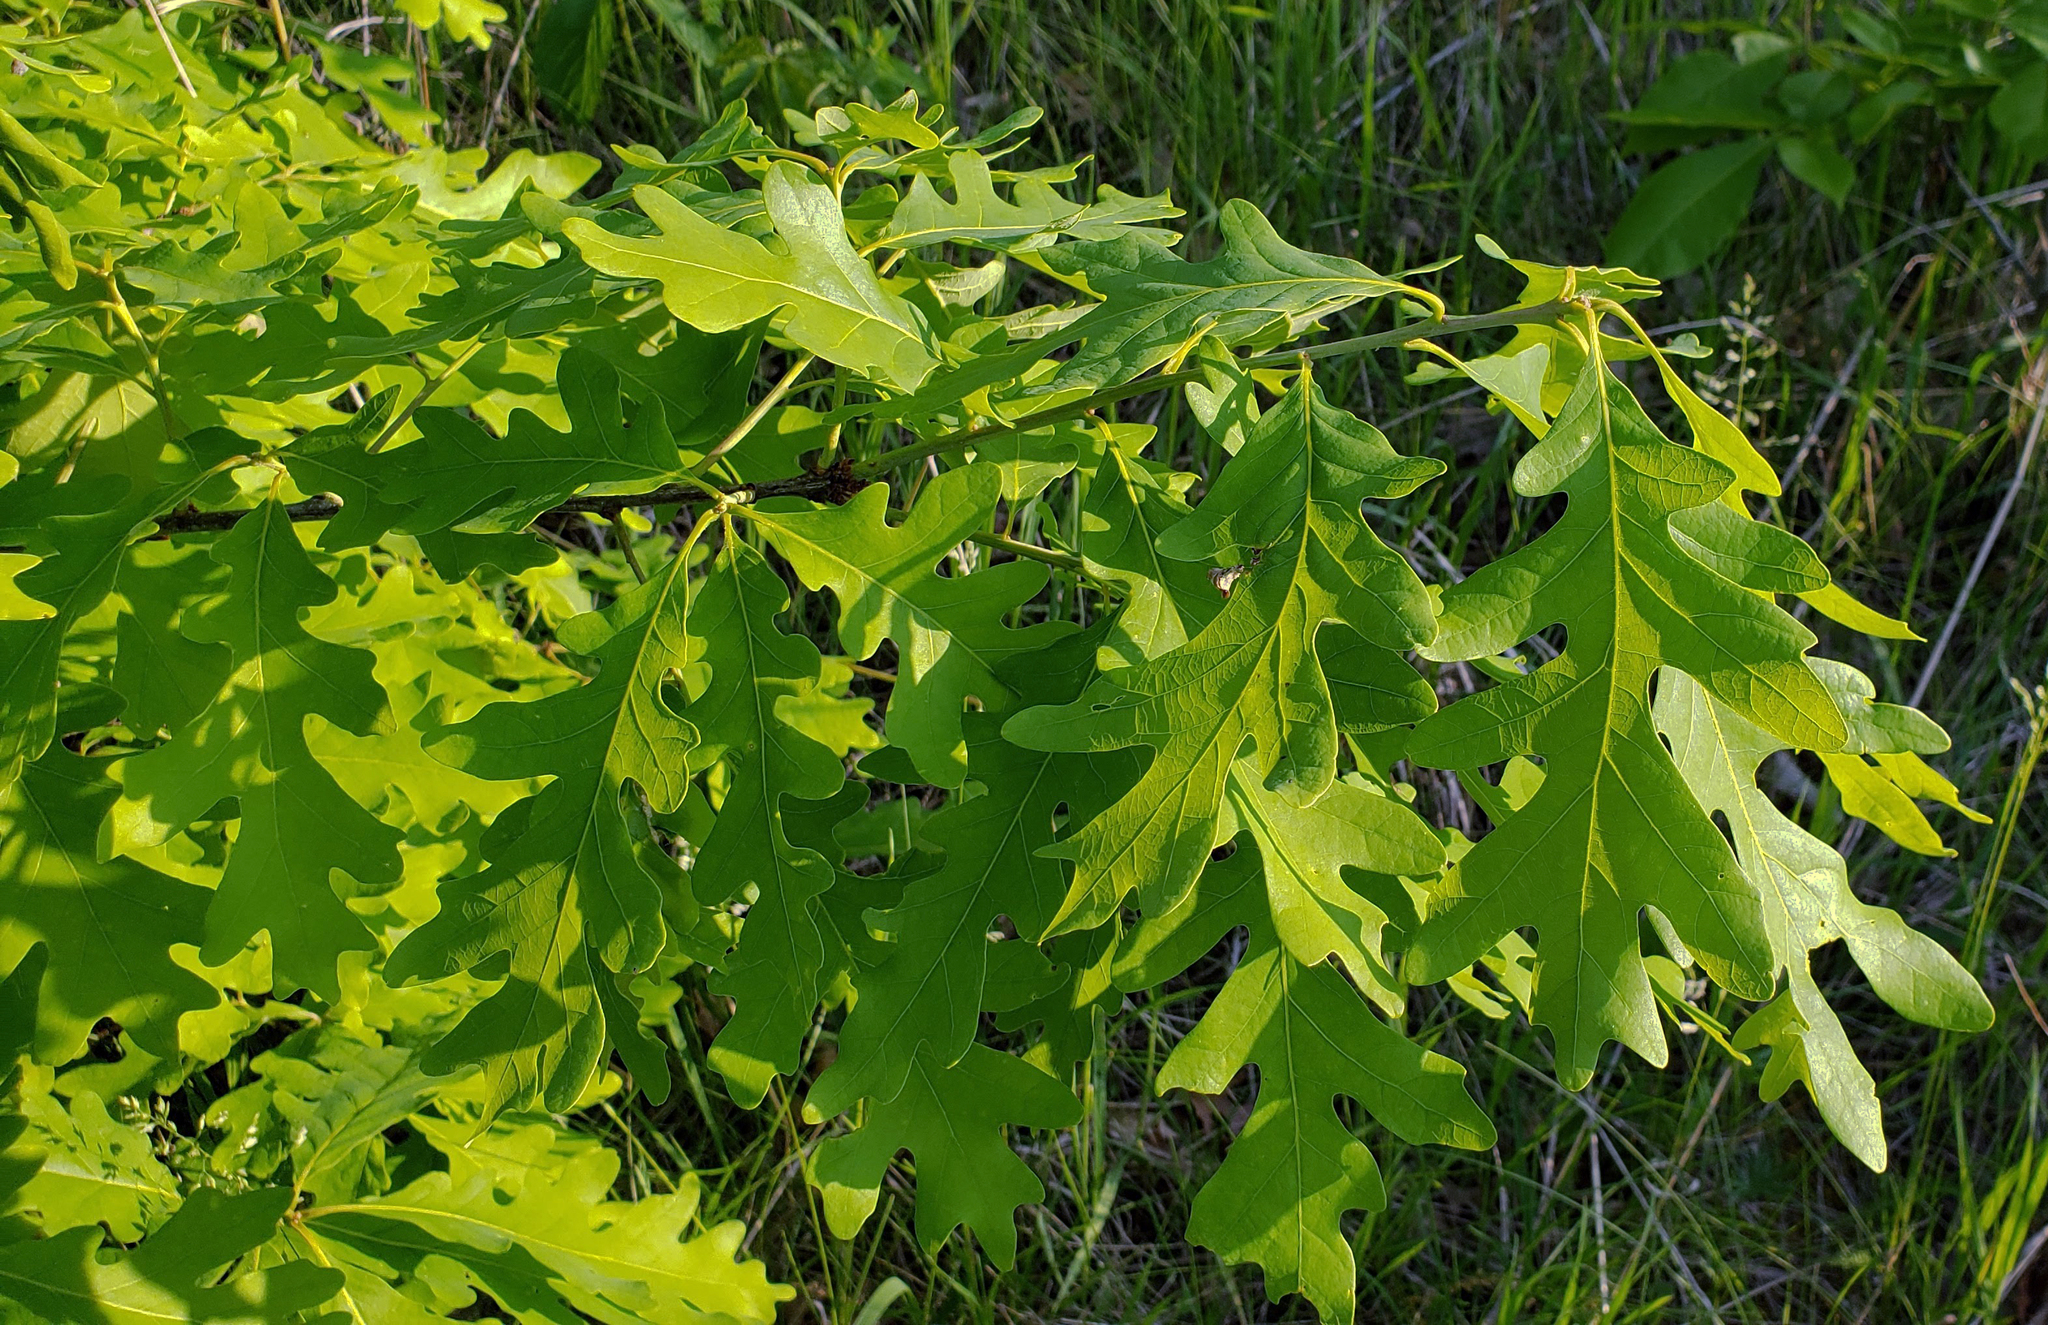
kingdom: Plantae
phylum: Tracheophyta
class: Magnoliopsida
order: Fagales
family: Fagaceae
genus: Quercus
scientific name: Quercus alba
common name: White oak
